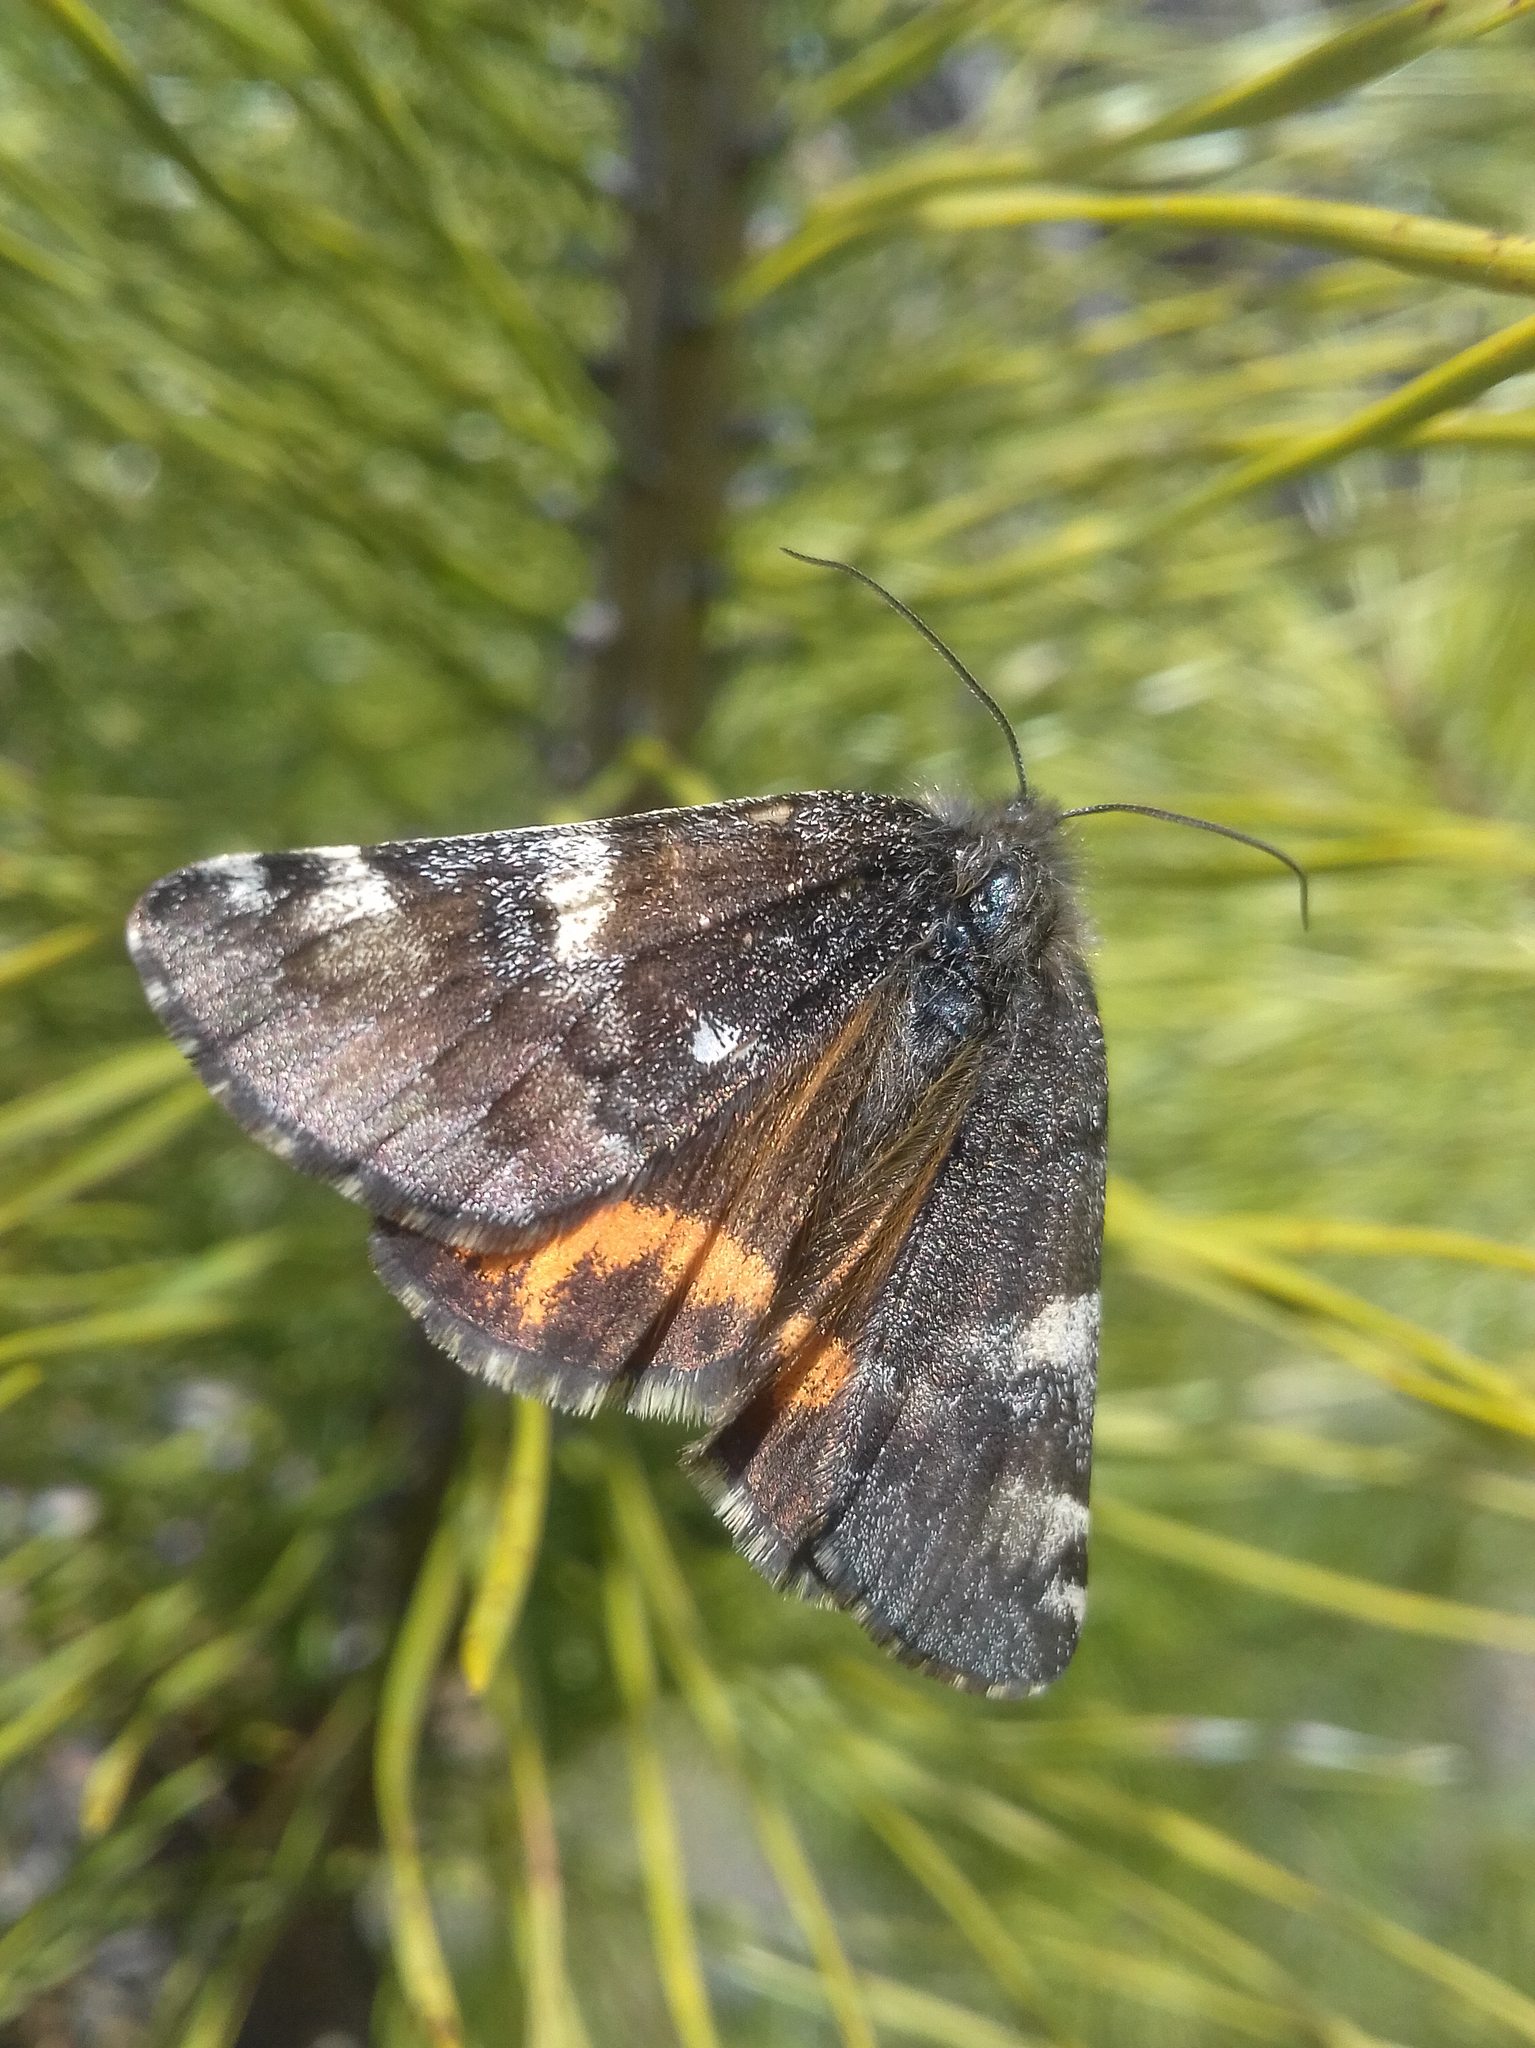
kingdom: Animalia
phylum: Arthropoda
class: Insecta
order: Lepidoptera
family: Geometridae
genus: Archiearis
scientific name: Archiearis parthenias
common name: Orange underwing
